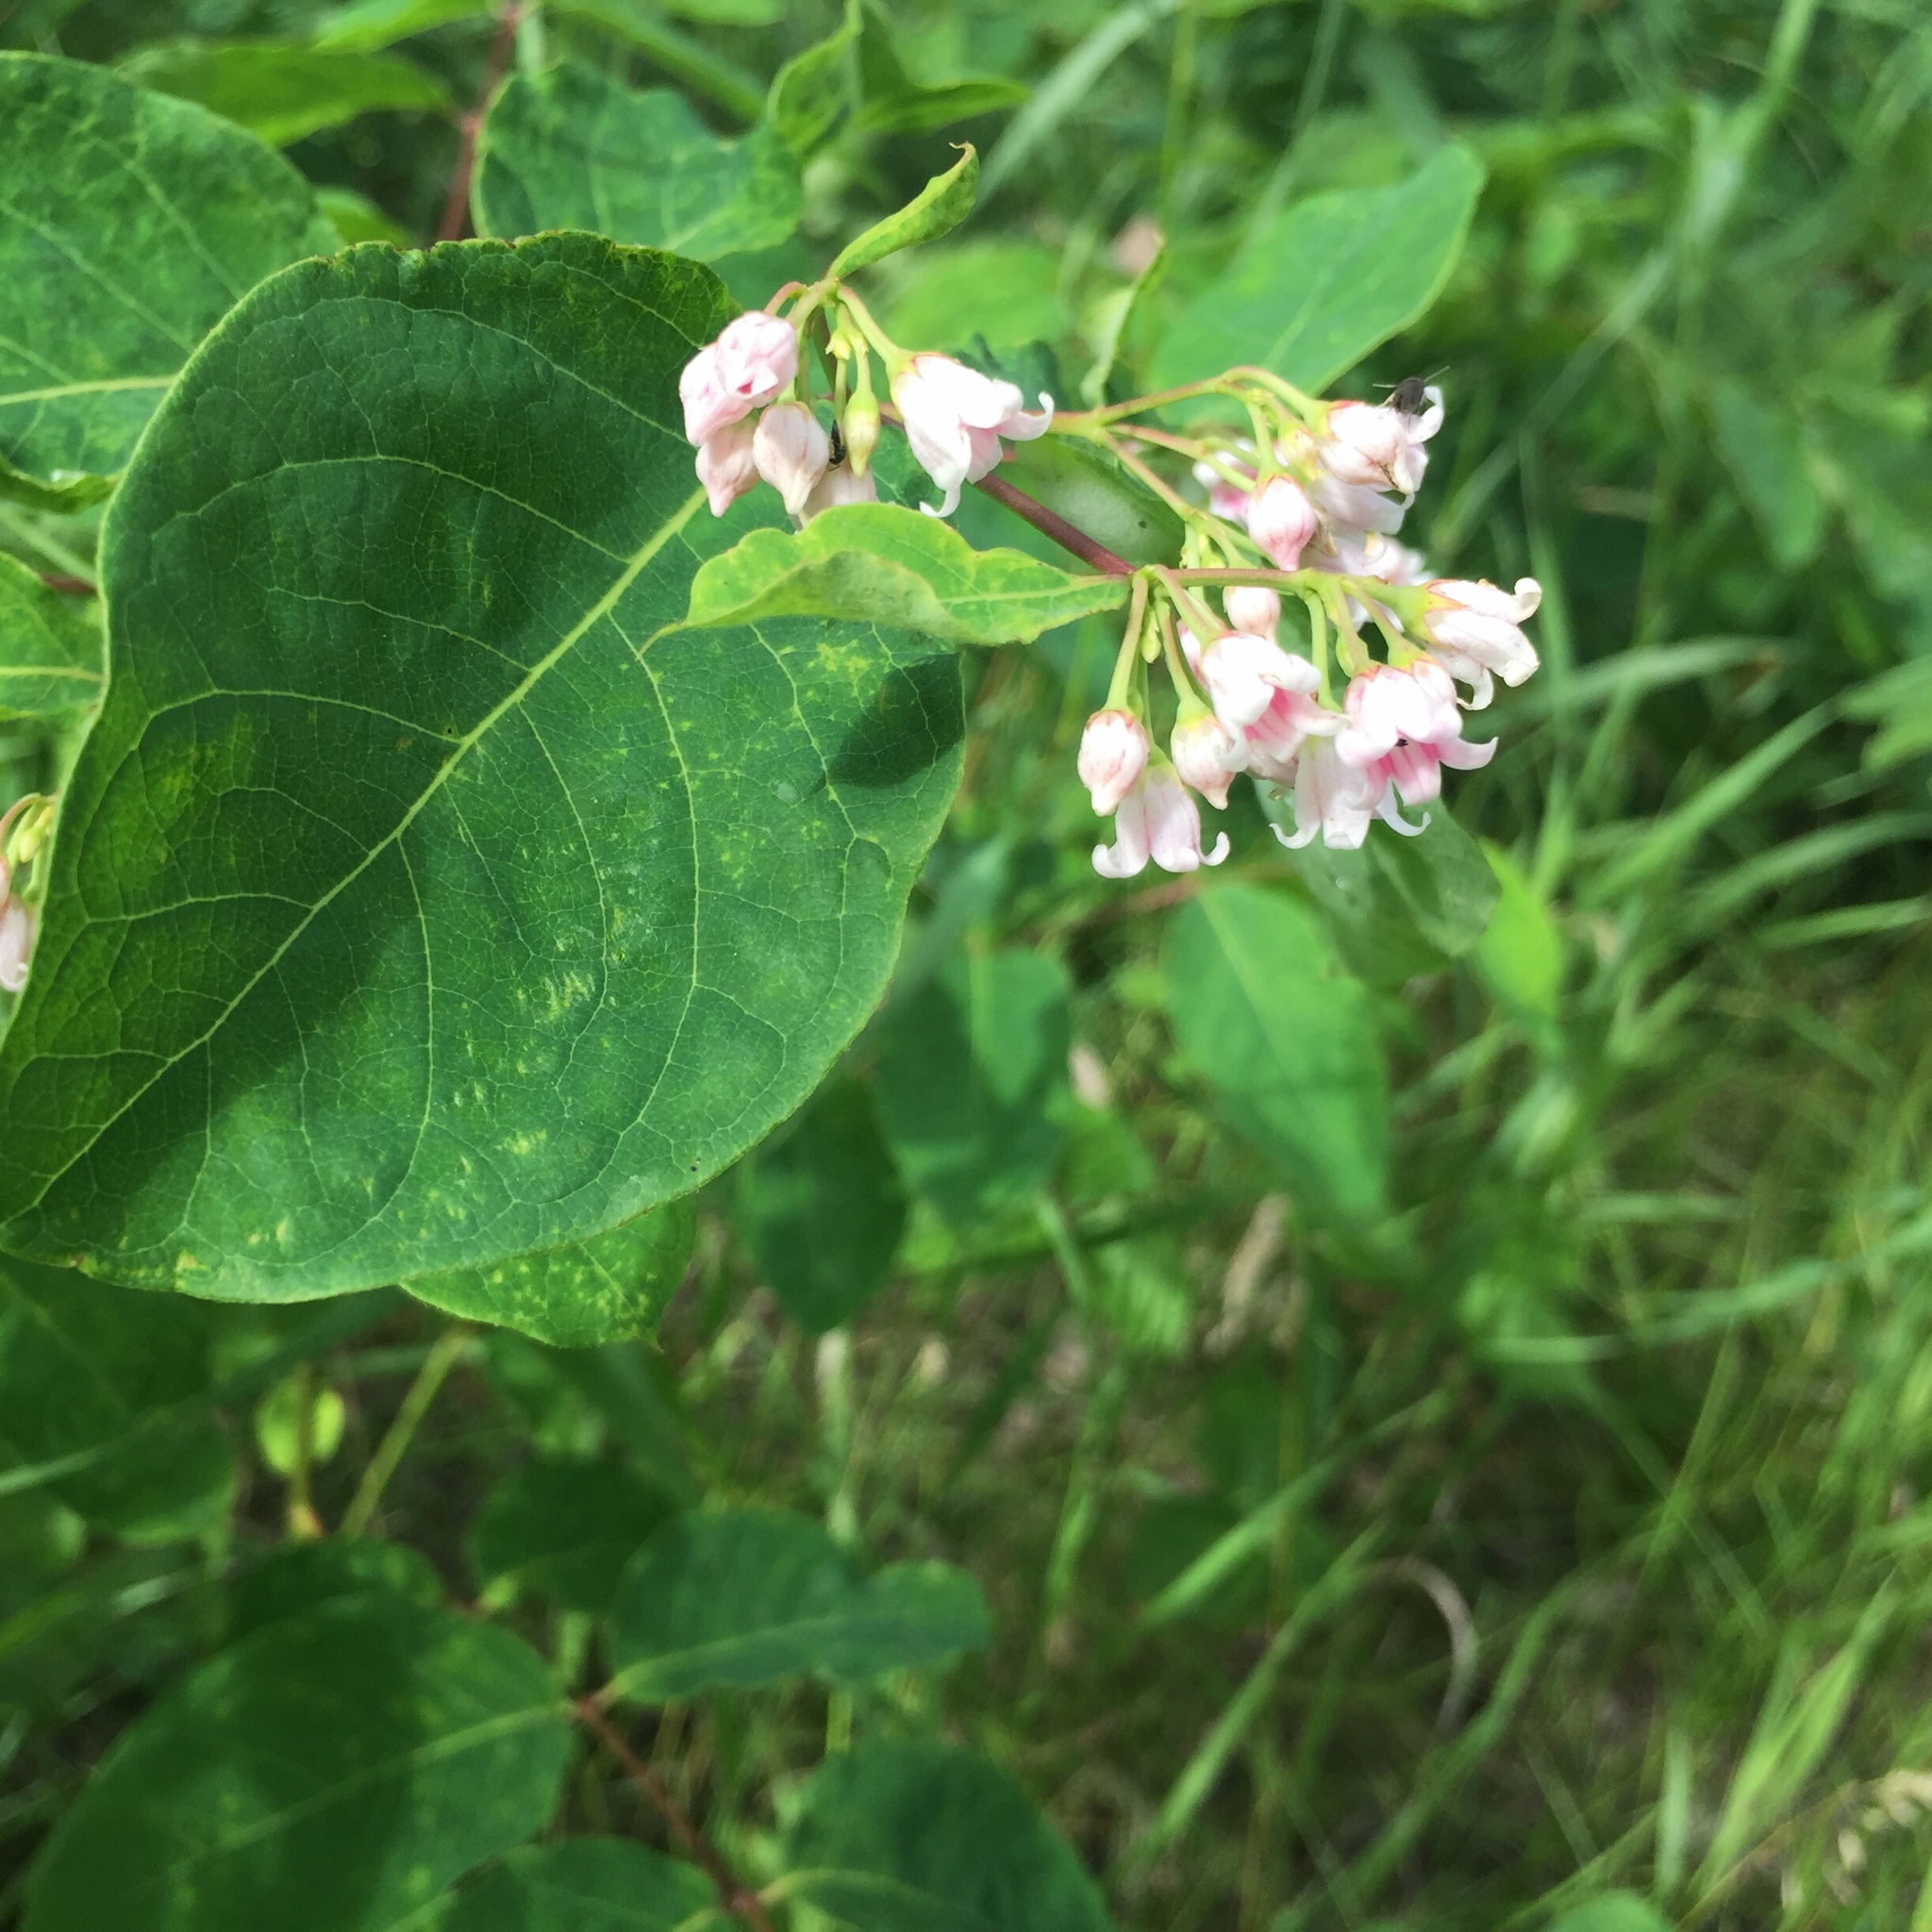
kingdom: Plantae
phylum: Tracheophyta
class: Magnoliopsida
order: Gentianales
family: Apocynaceae
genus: Apocynum
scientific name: Apocynum androsaemifolium
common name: Spreading dogbane
